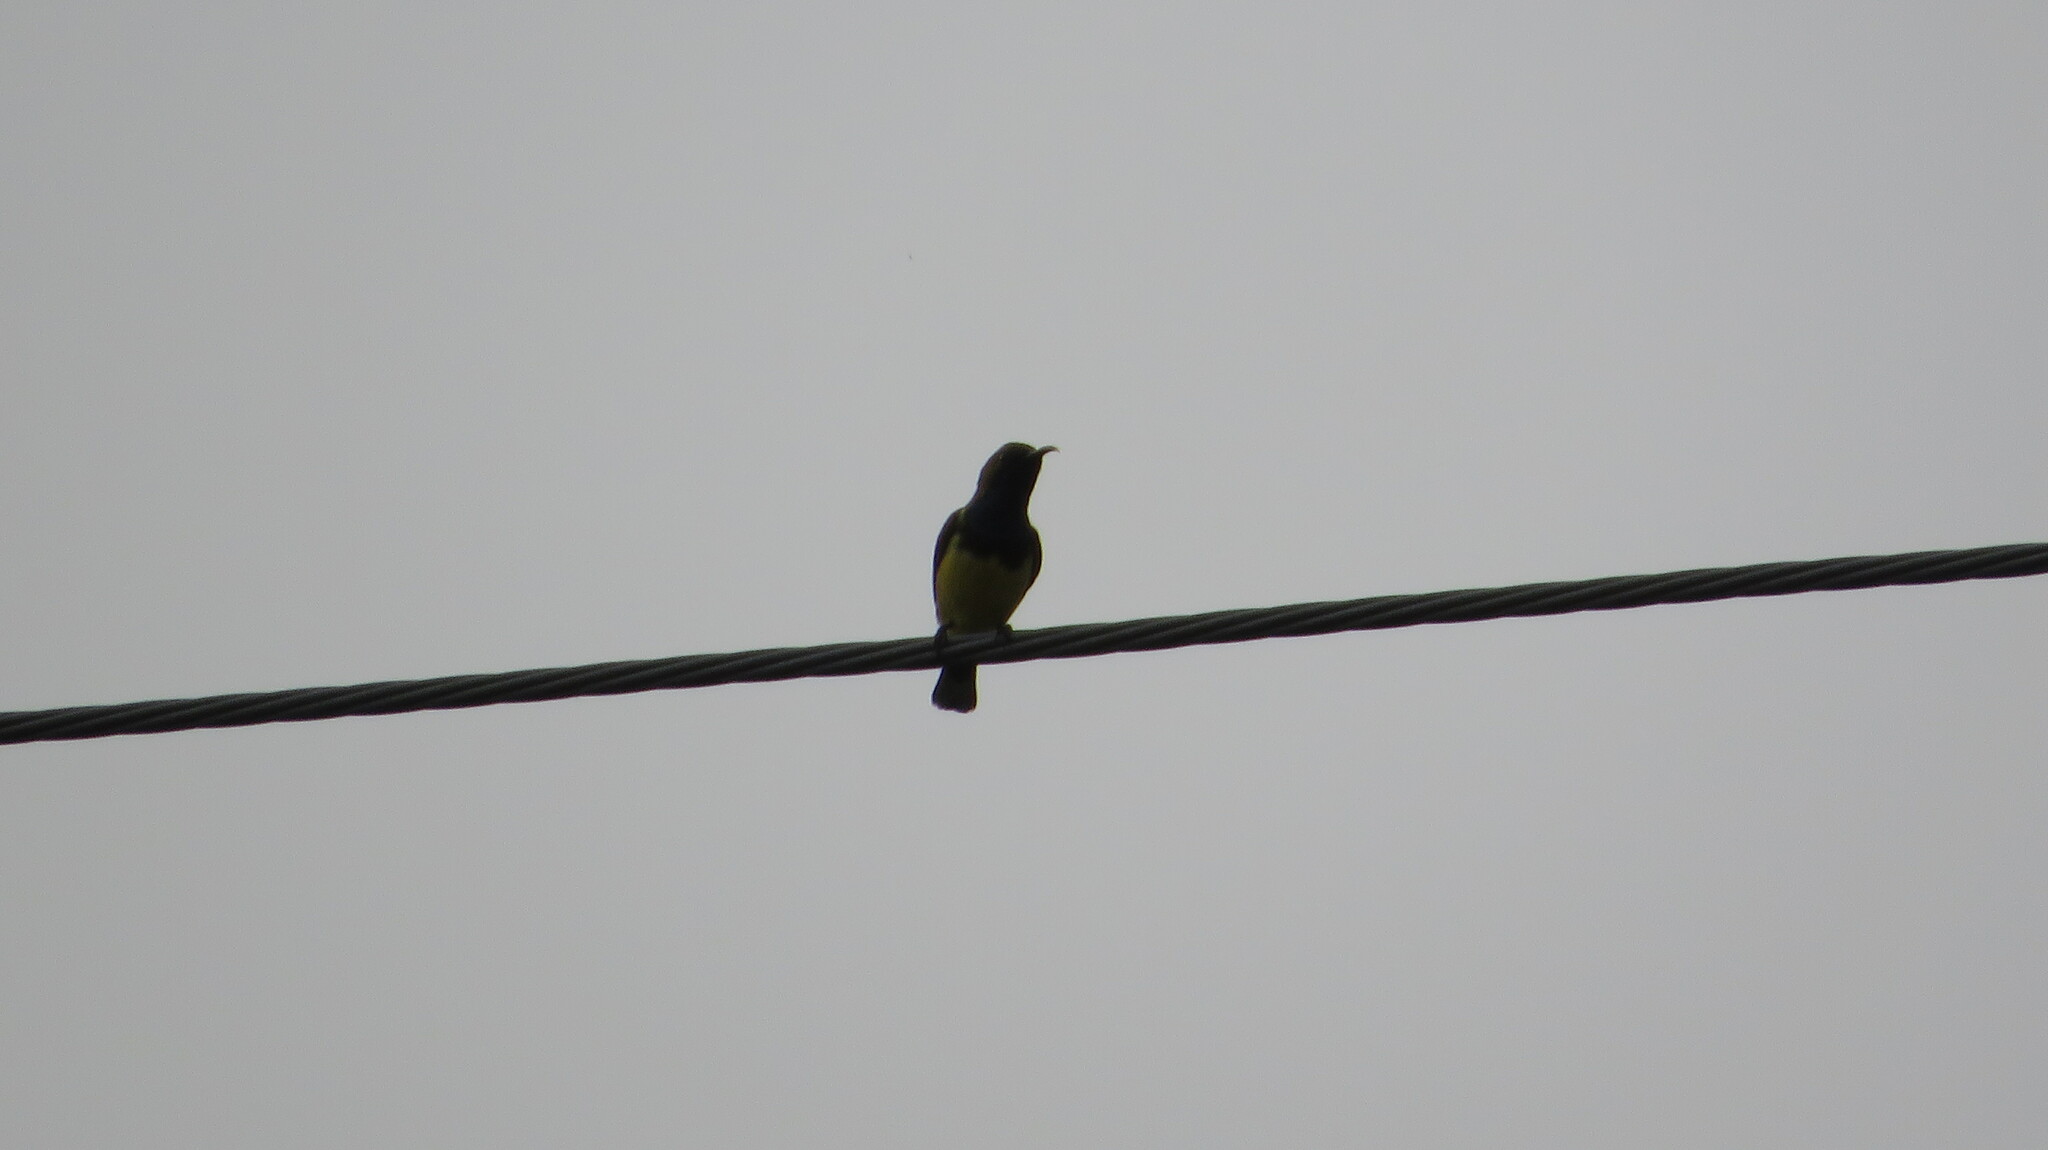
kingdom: Animalia
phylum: Chordata
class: Aves
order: Passeriformes
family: Nectariniidae
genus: Cinnyris
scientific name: Cinnyris
